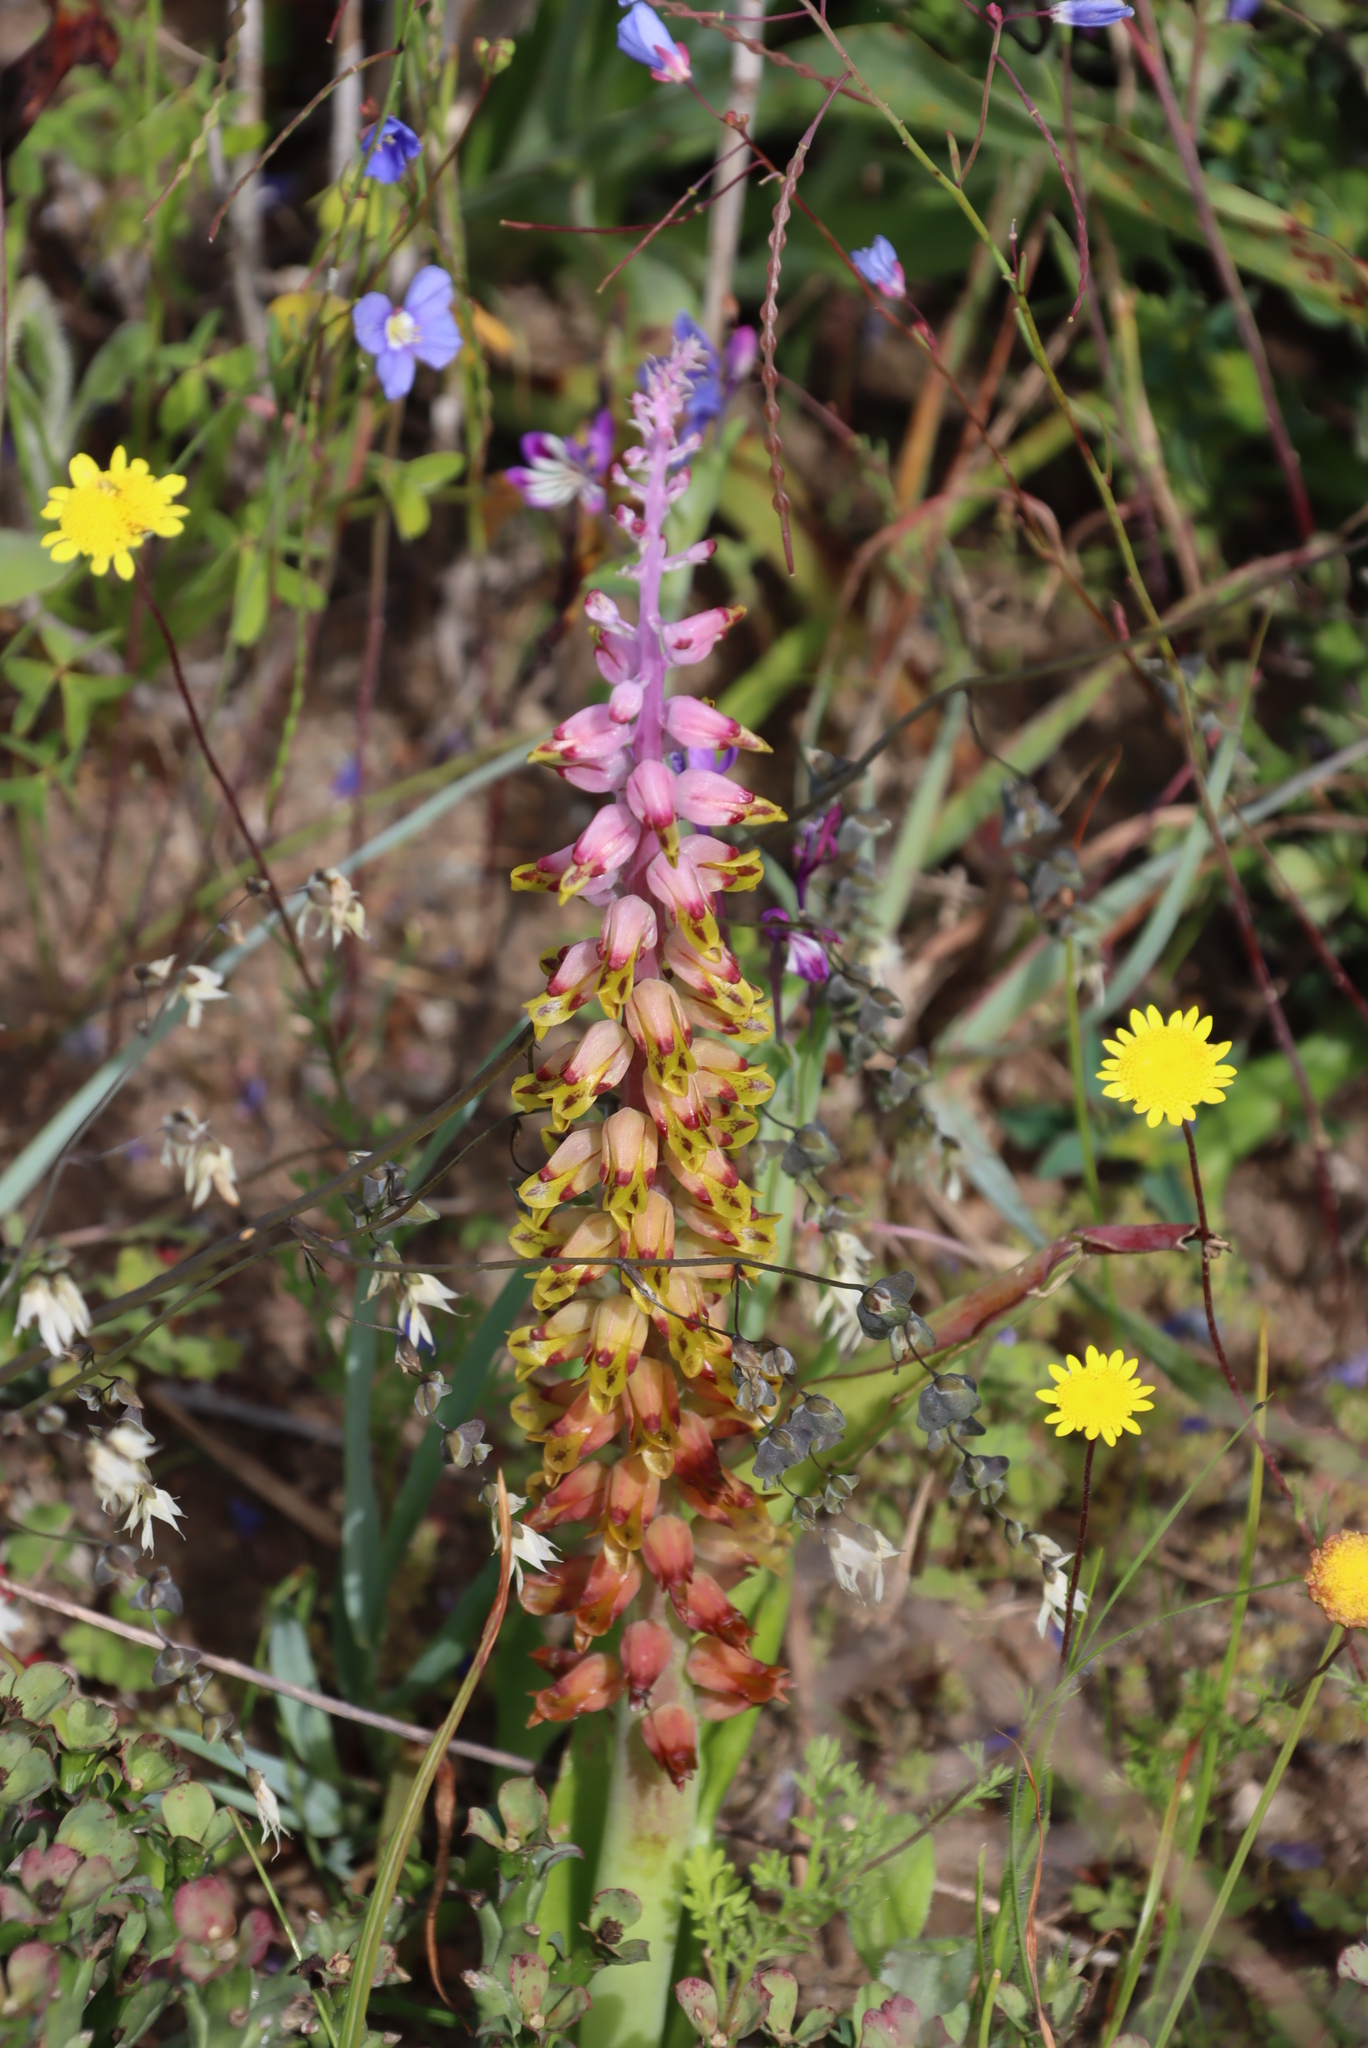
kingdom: Plantae
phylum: Tracheophyta
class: Liliopsida
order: Asparagales
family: Asparagaceae
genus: Lachenalia
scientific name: Lachenalia mutabilis
